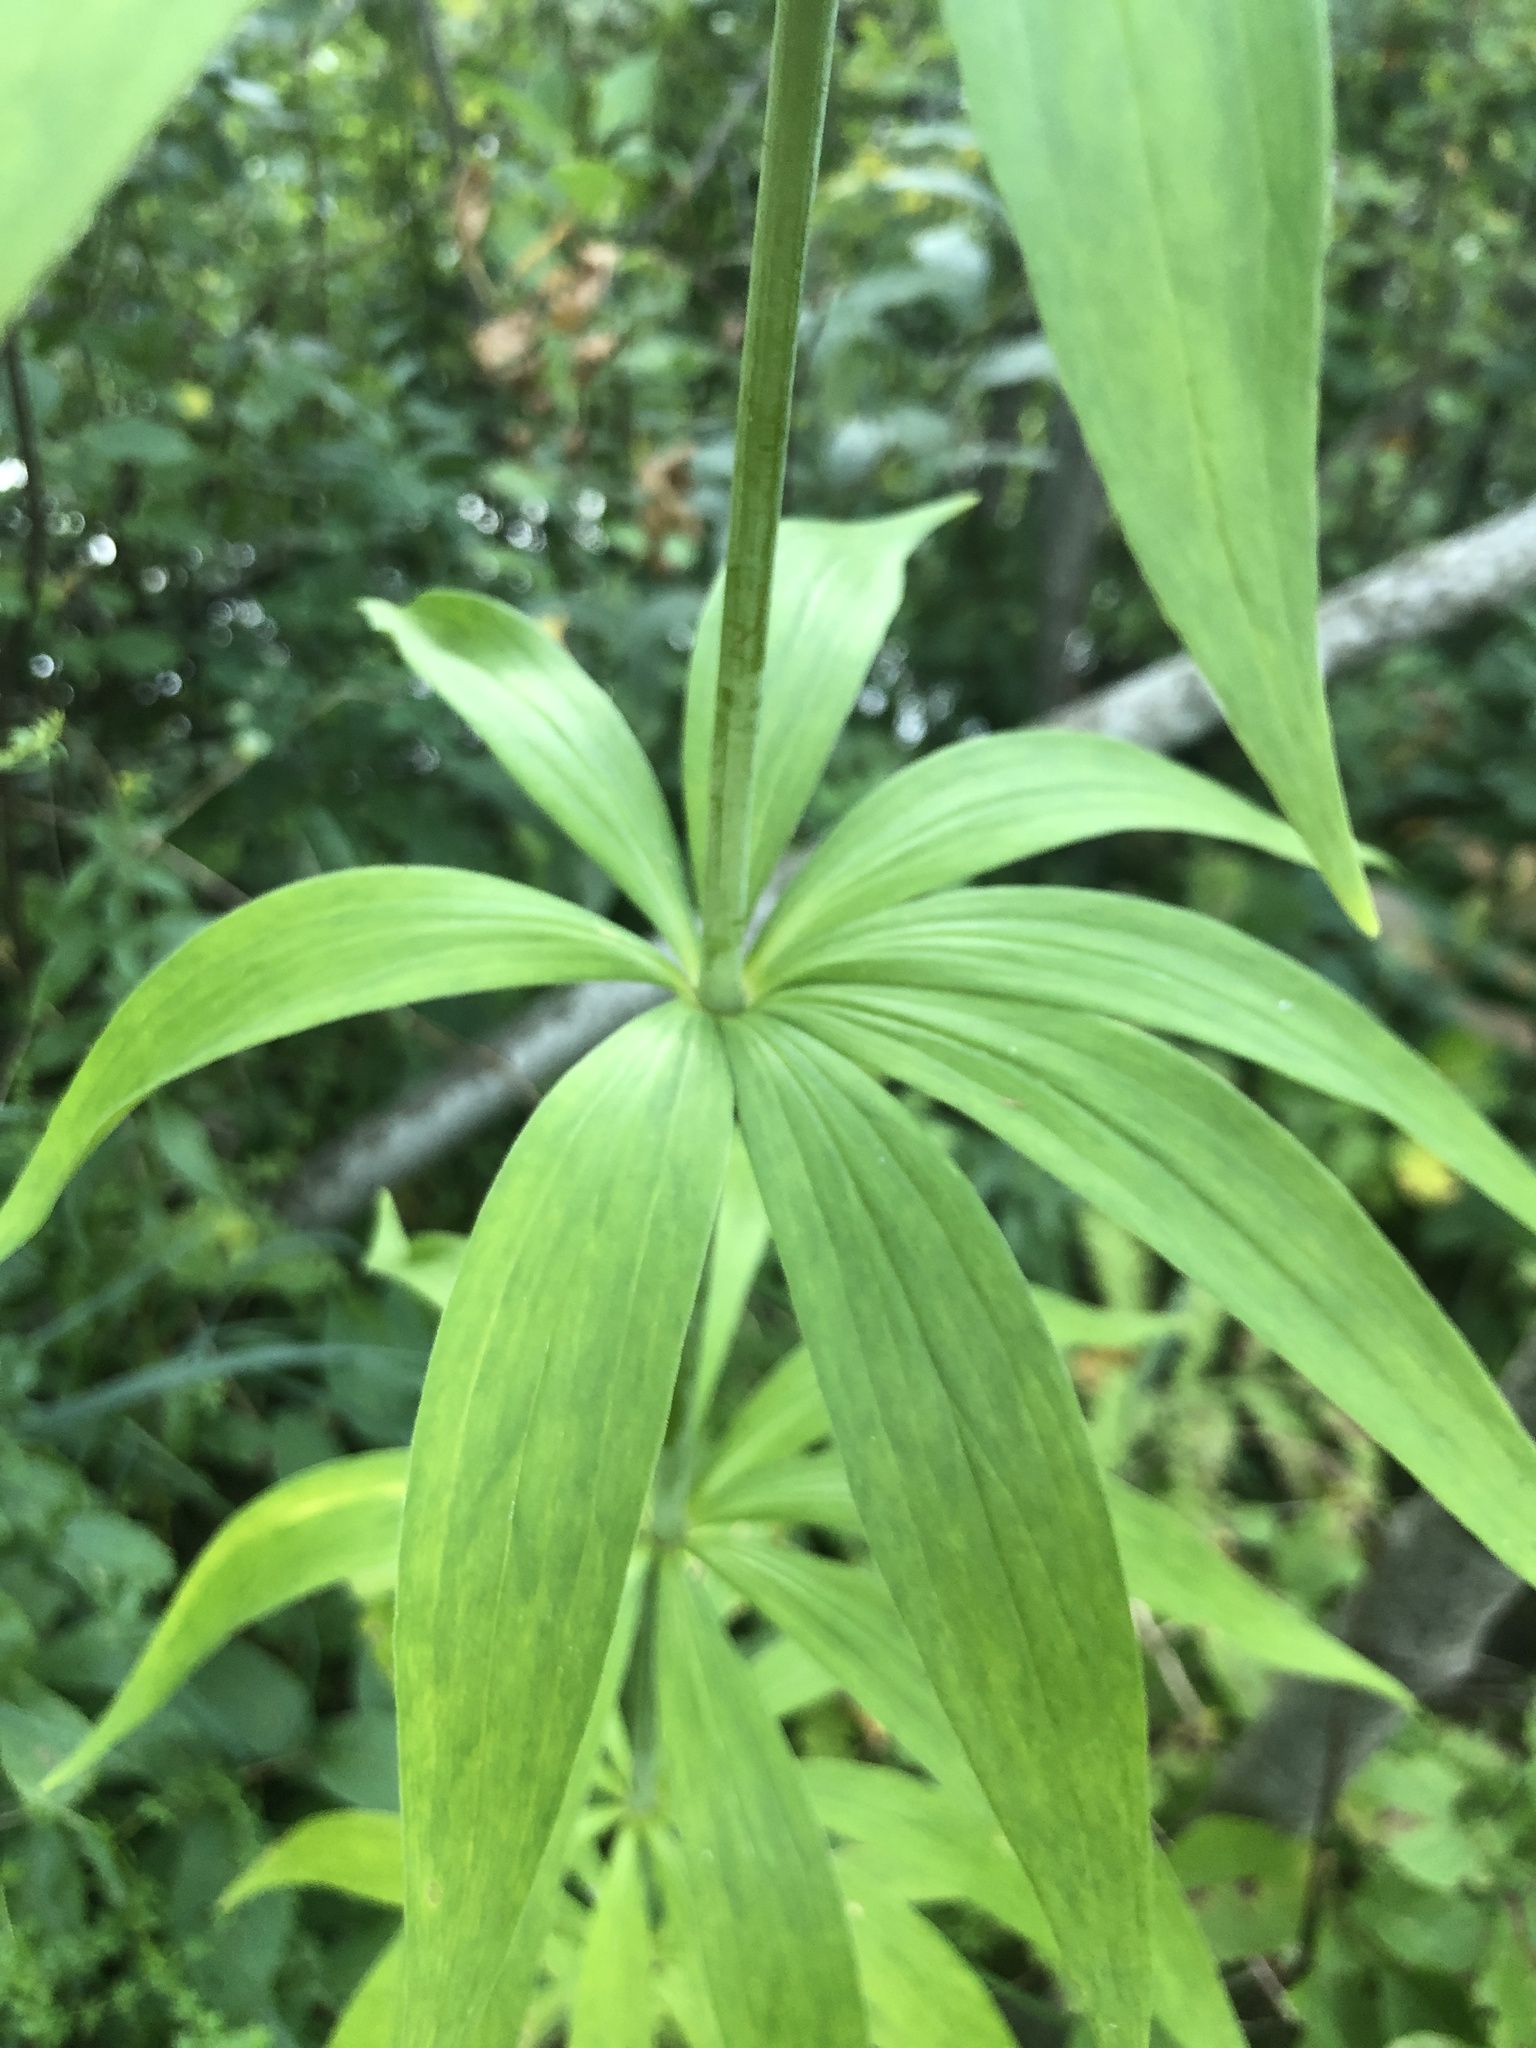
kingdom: Plantae
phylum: Tracheophyta
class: Liliopsida
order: Liliales
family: Liliaceae
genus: Lilium
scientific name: Lilium canadense
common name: Canada lily
